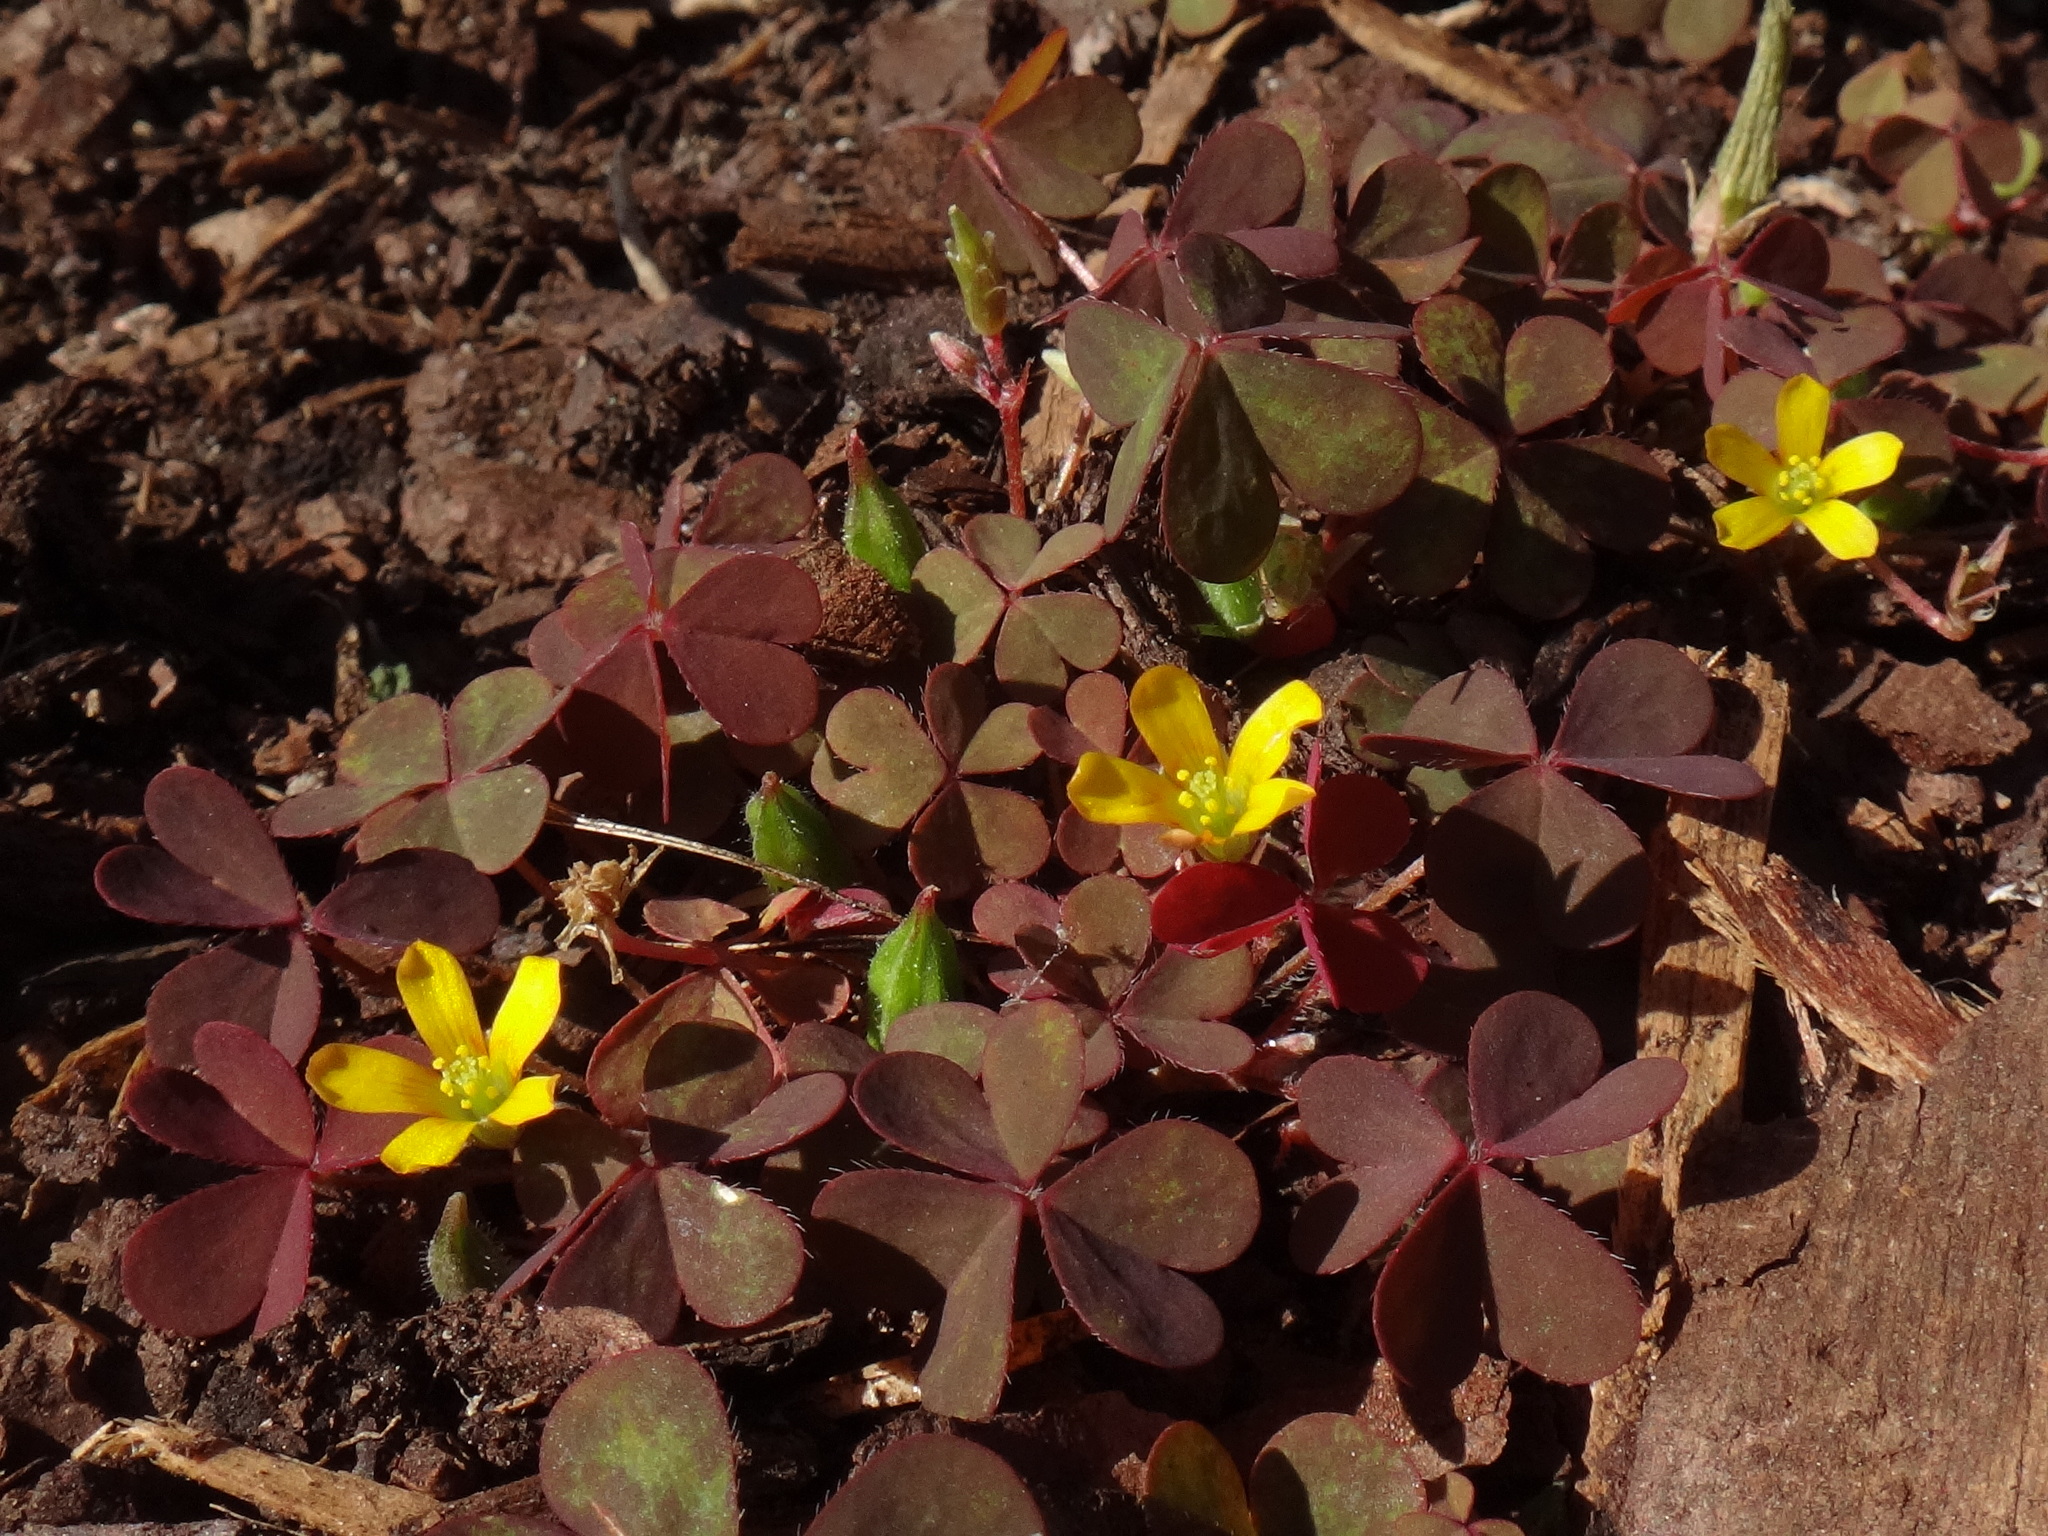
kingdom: Plantae
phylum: Tracheophyta
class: Magnoliopsida
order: Oxalidales
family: Oxalidaceae
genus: Oxalis
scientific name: Oxalis corniculata
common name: Procumbent yellow-sorrel
